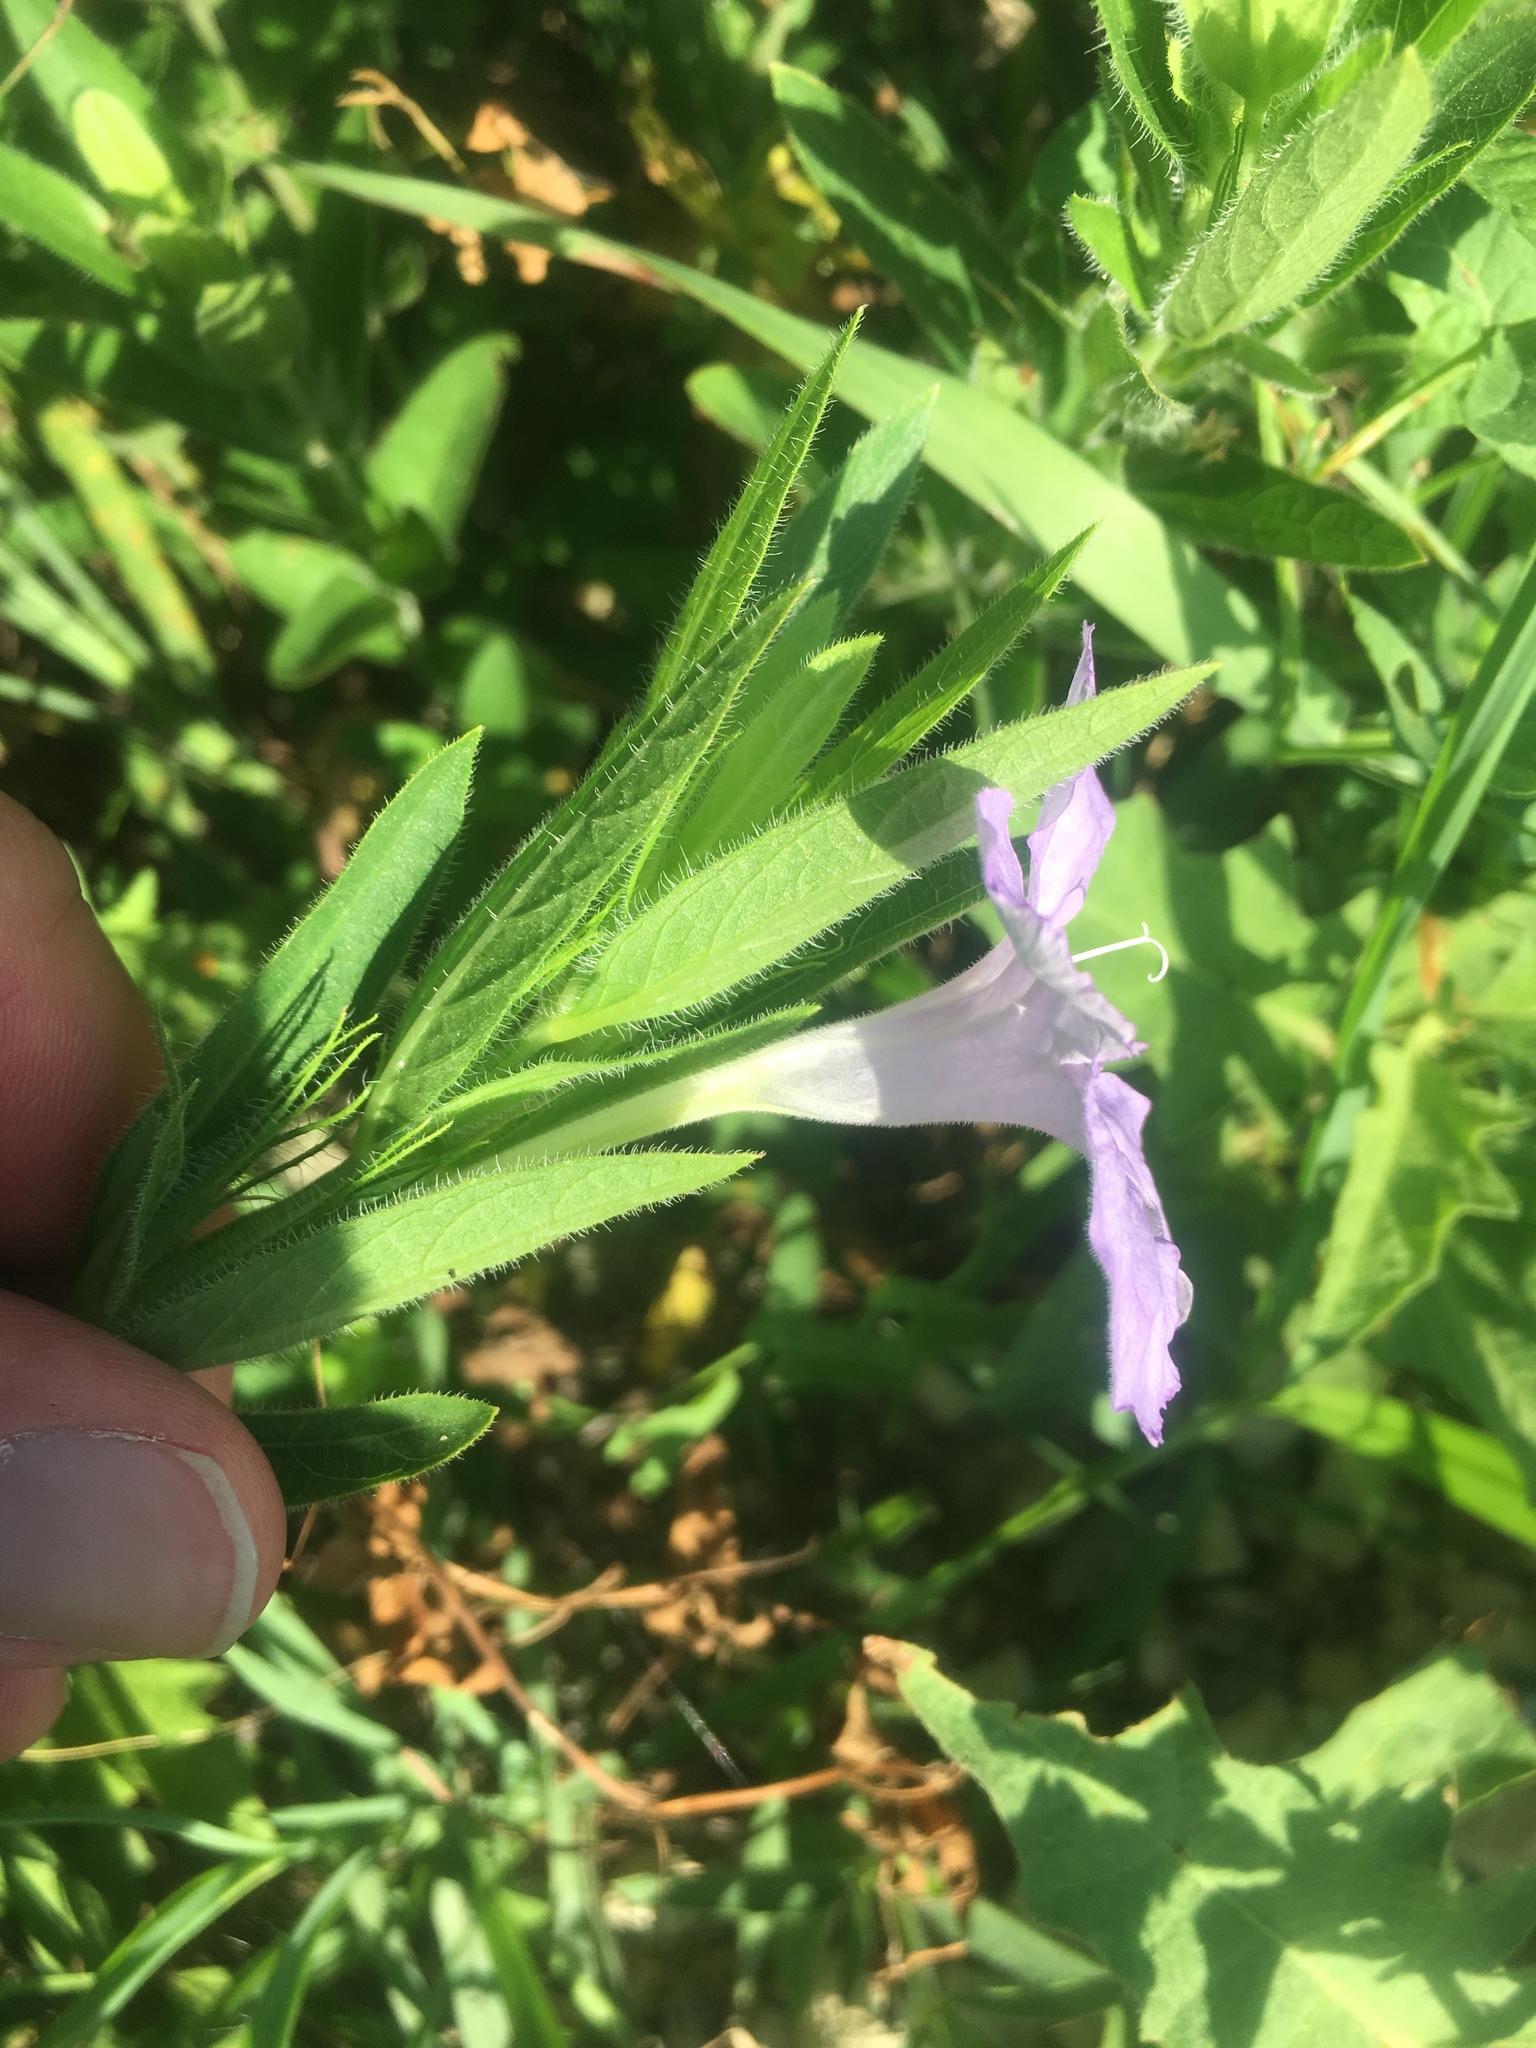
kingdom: Plantae
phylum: Tracheophyta
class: Magnoliopsida
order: Lamiales
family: Acanthaceae
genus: Ruellia
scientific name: Ruellia humilis
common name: Fringe-leaf ruellia
